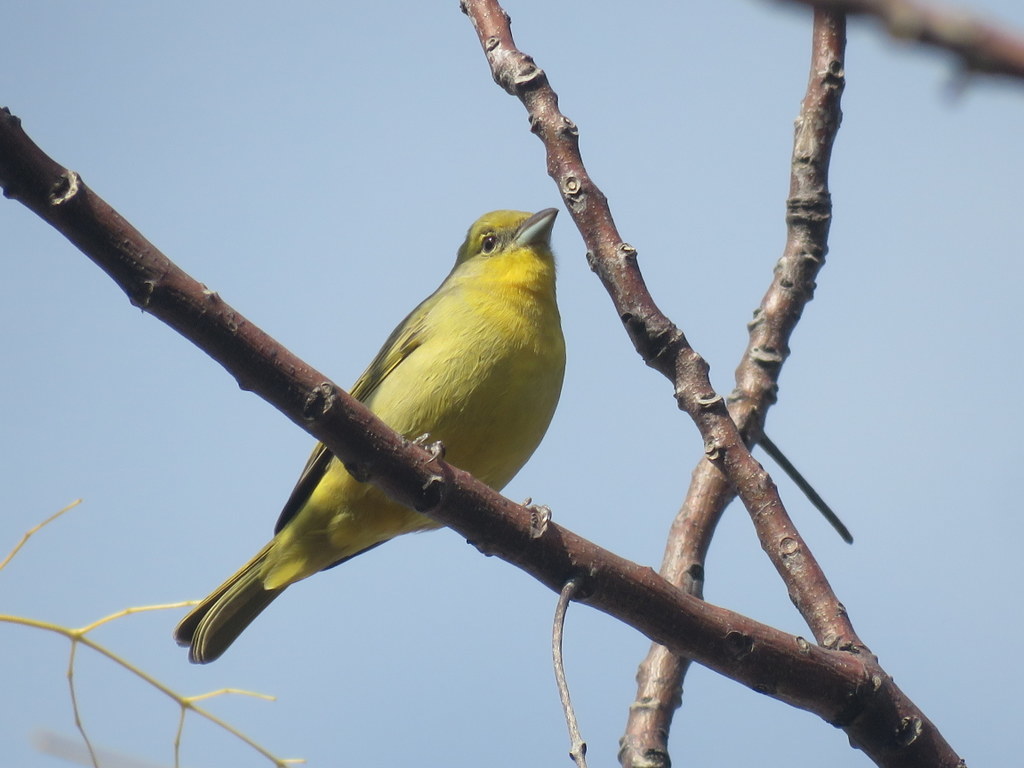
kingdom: Animalia
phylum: Chordata
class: Aves
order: Passeriformes
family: Cardinalidae
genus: Piranga
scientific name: Piranga flava
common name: Red tanager
